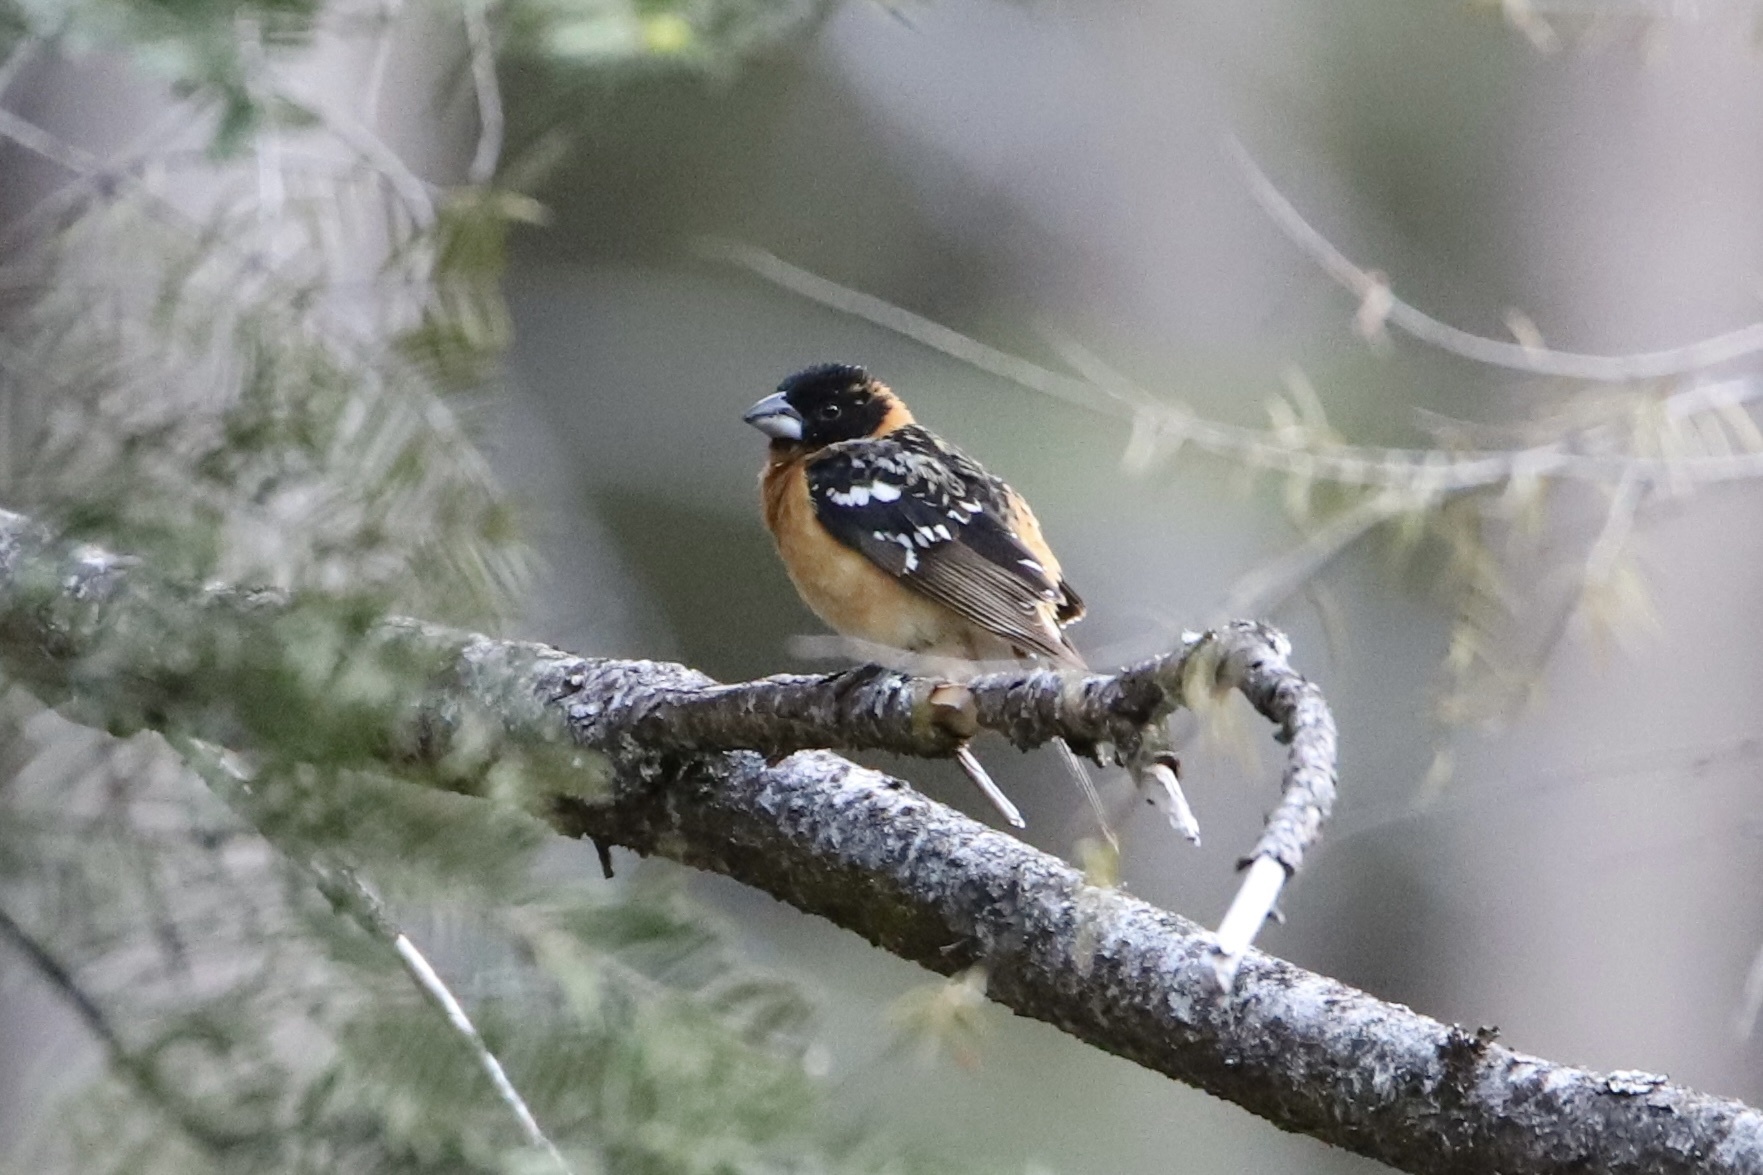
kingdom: Animalia
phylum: Chordata
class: Aves
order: Passeriformes
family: Cardinalidae
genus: Pheucticus
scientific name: Pheucticus melanocephalus
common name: Black-headed grosbeak
